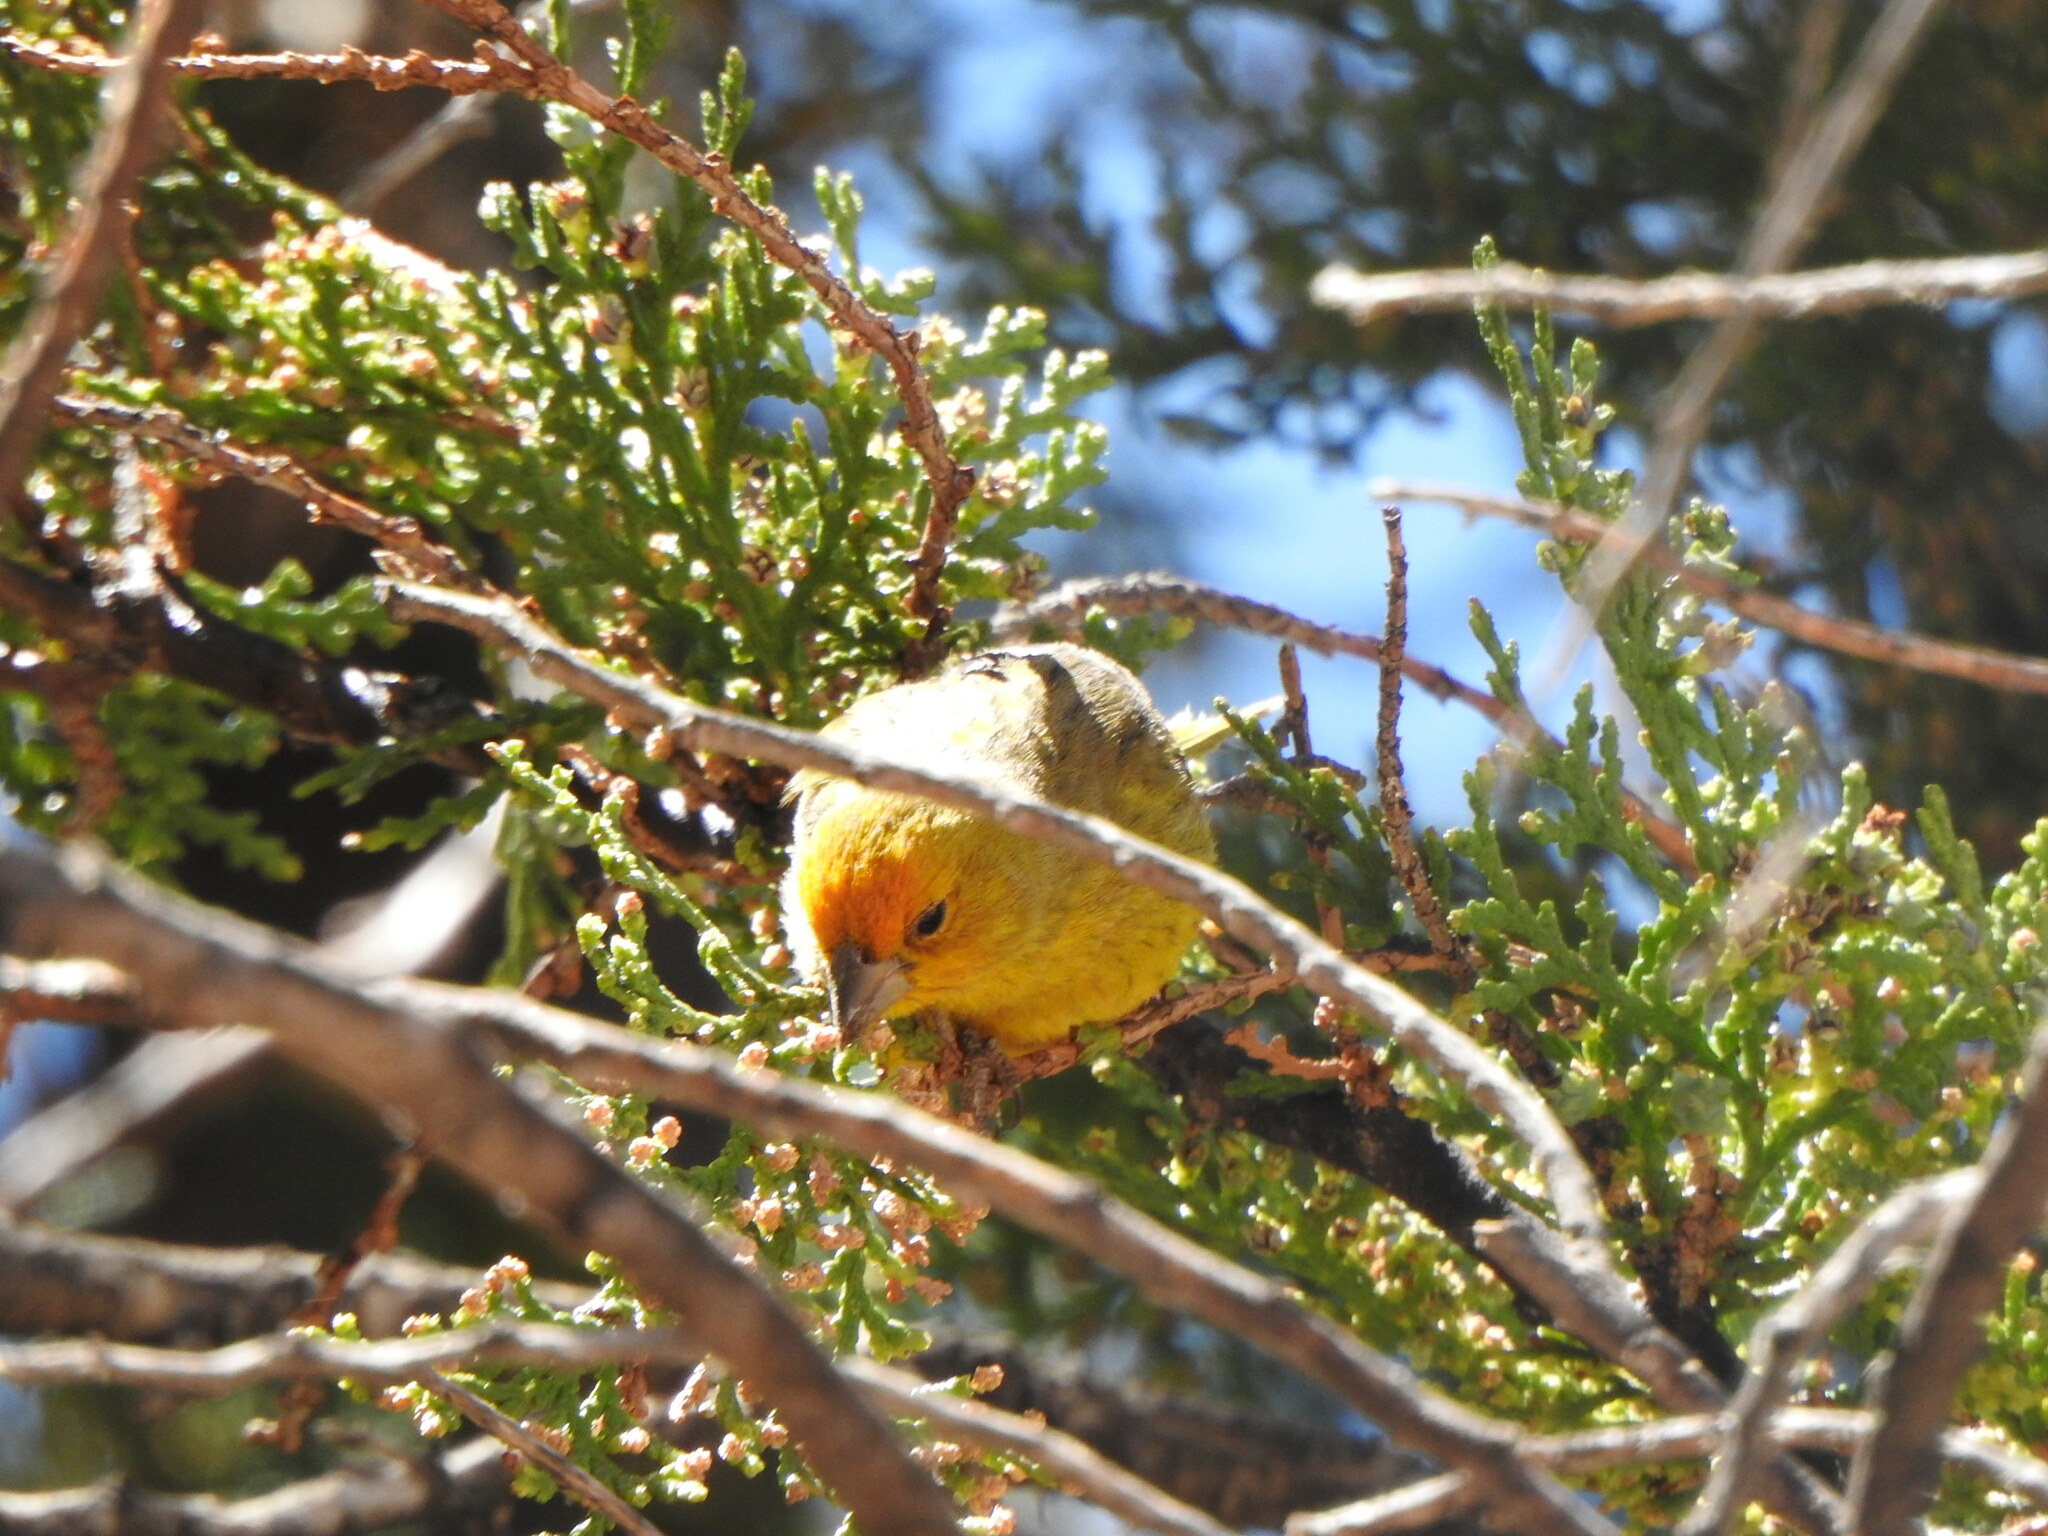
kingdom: Animalia
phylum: Chordata
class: Aves
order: Passeriformes
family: Thraupidae
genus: Sicalis
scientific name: Sicalis flaveola
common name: Saffron finch
